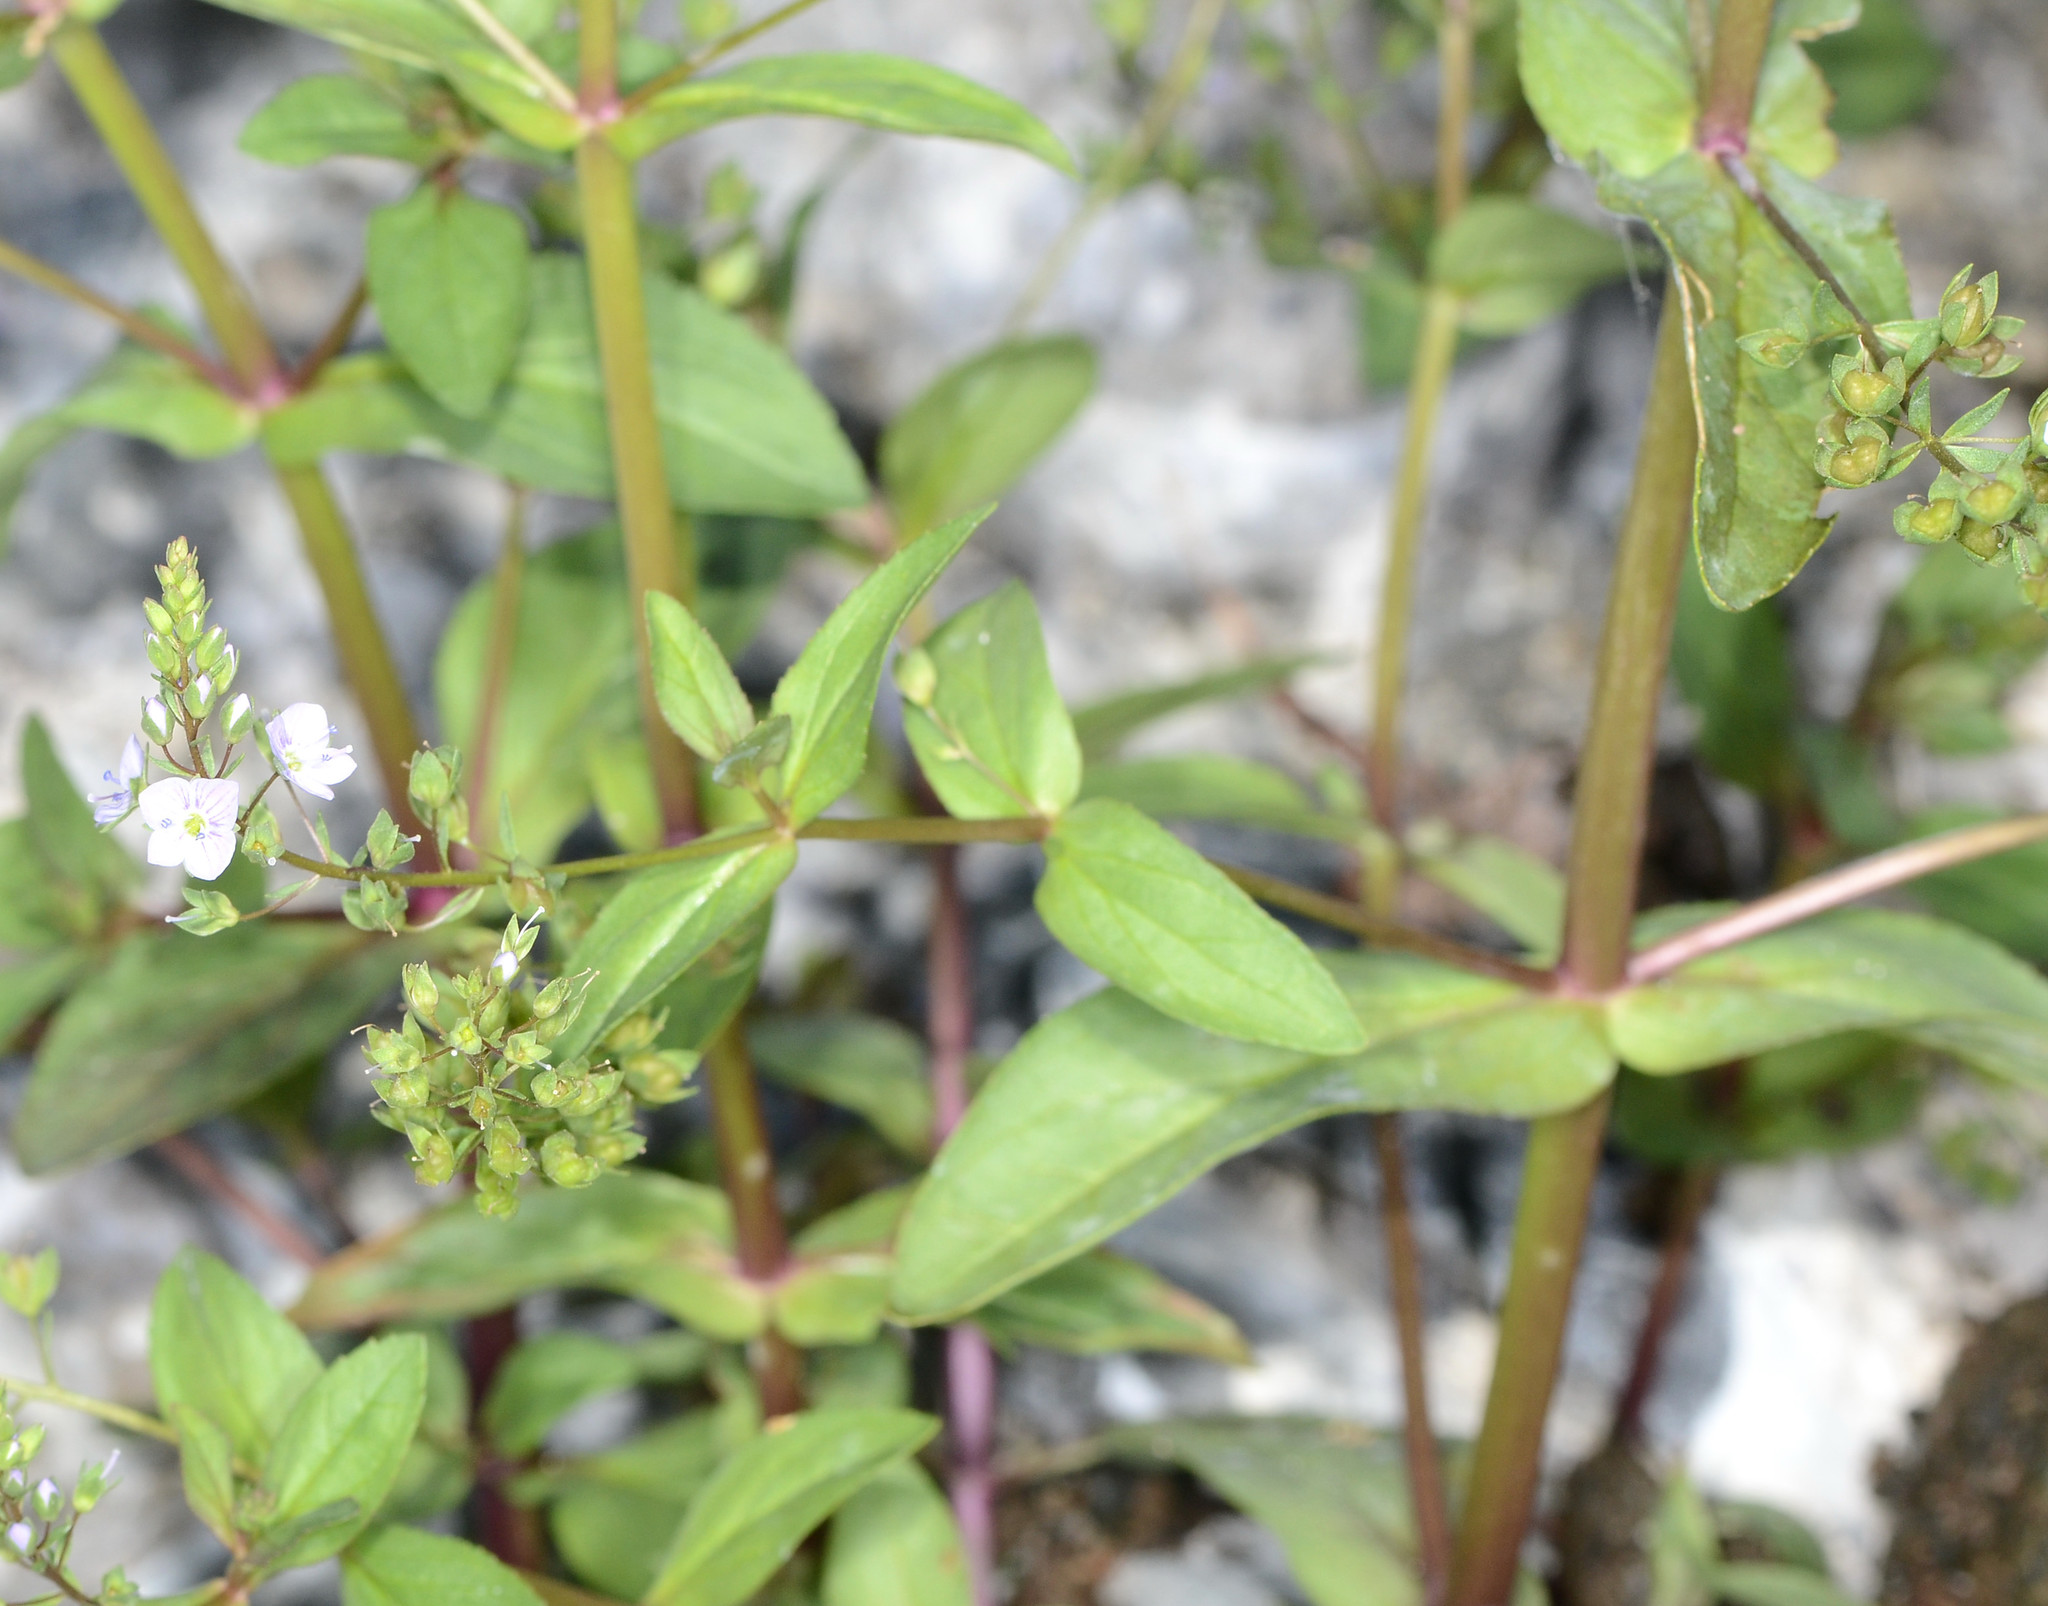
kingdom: Plantae
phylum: Tracheophyta
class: Magnoliopsida
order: Lamiales
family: Plantaginaceae
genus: Veronica
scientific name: Veronica anagallis-aquatica
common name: Water speedwell
